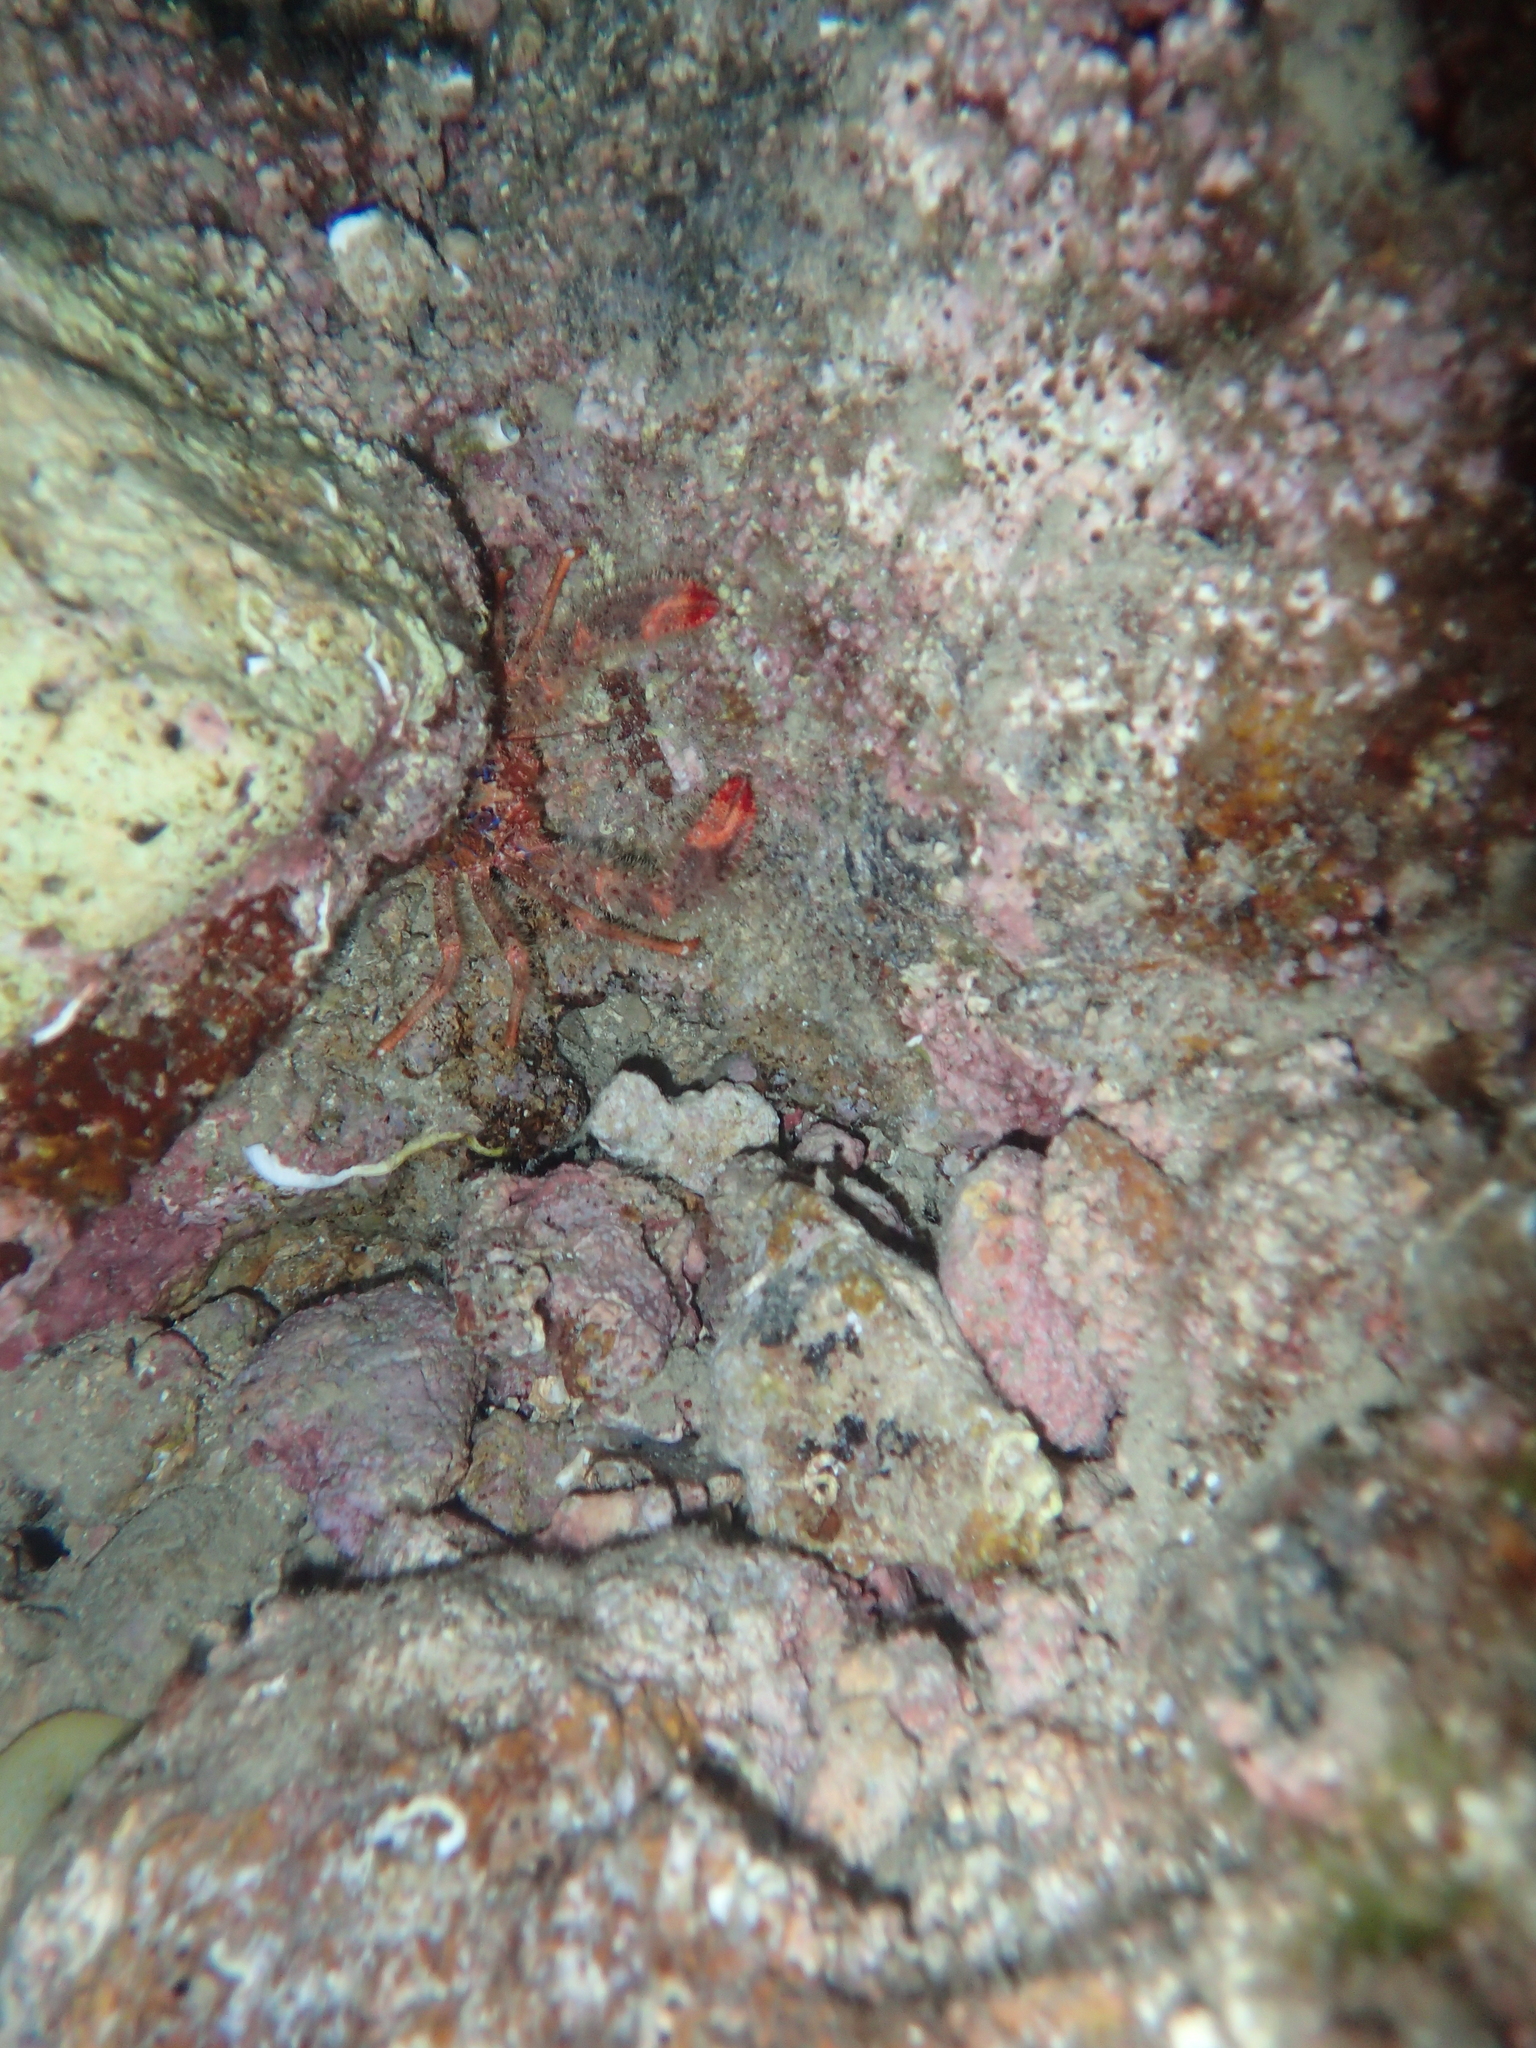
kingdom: Animalia
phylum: Arthropoda
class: Malacostraca
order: Decapoda
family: Galatheidae
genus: Galathea
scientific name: Galathea strigosa
